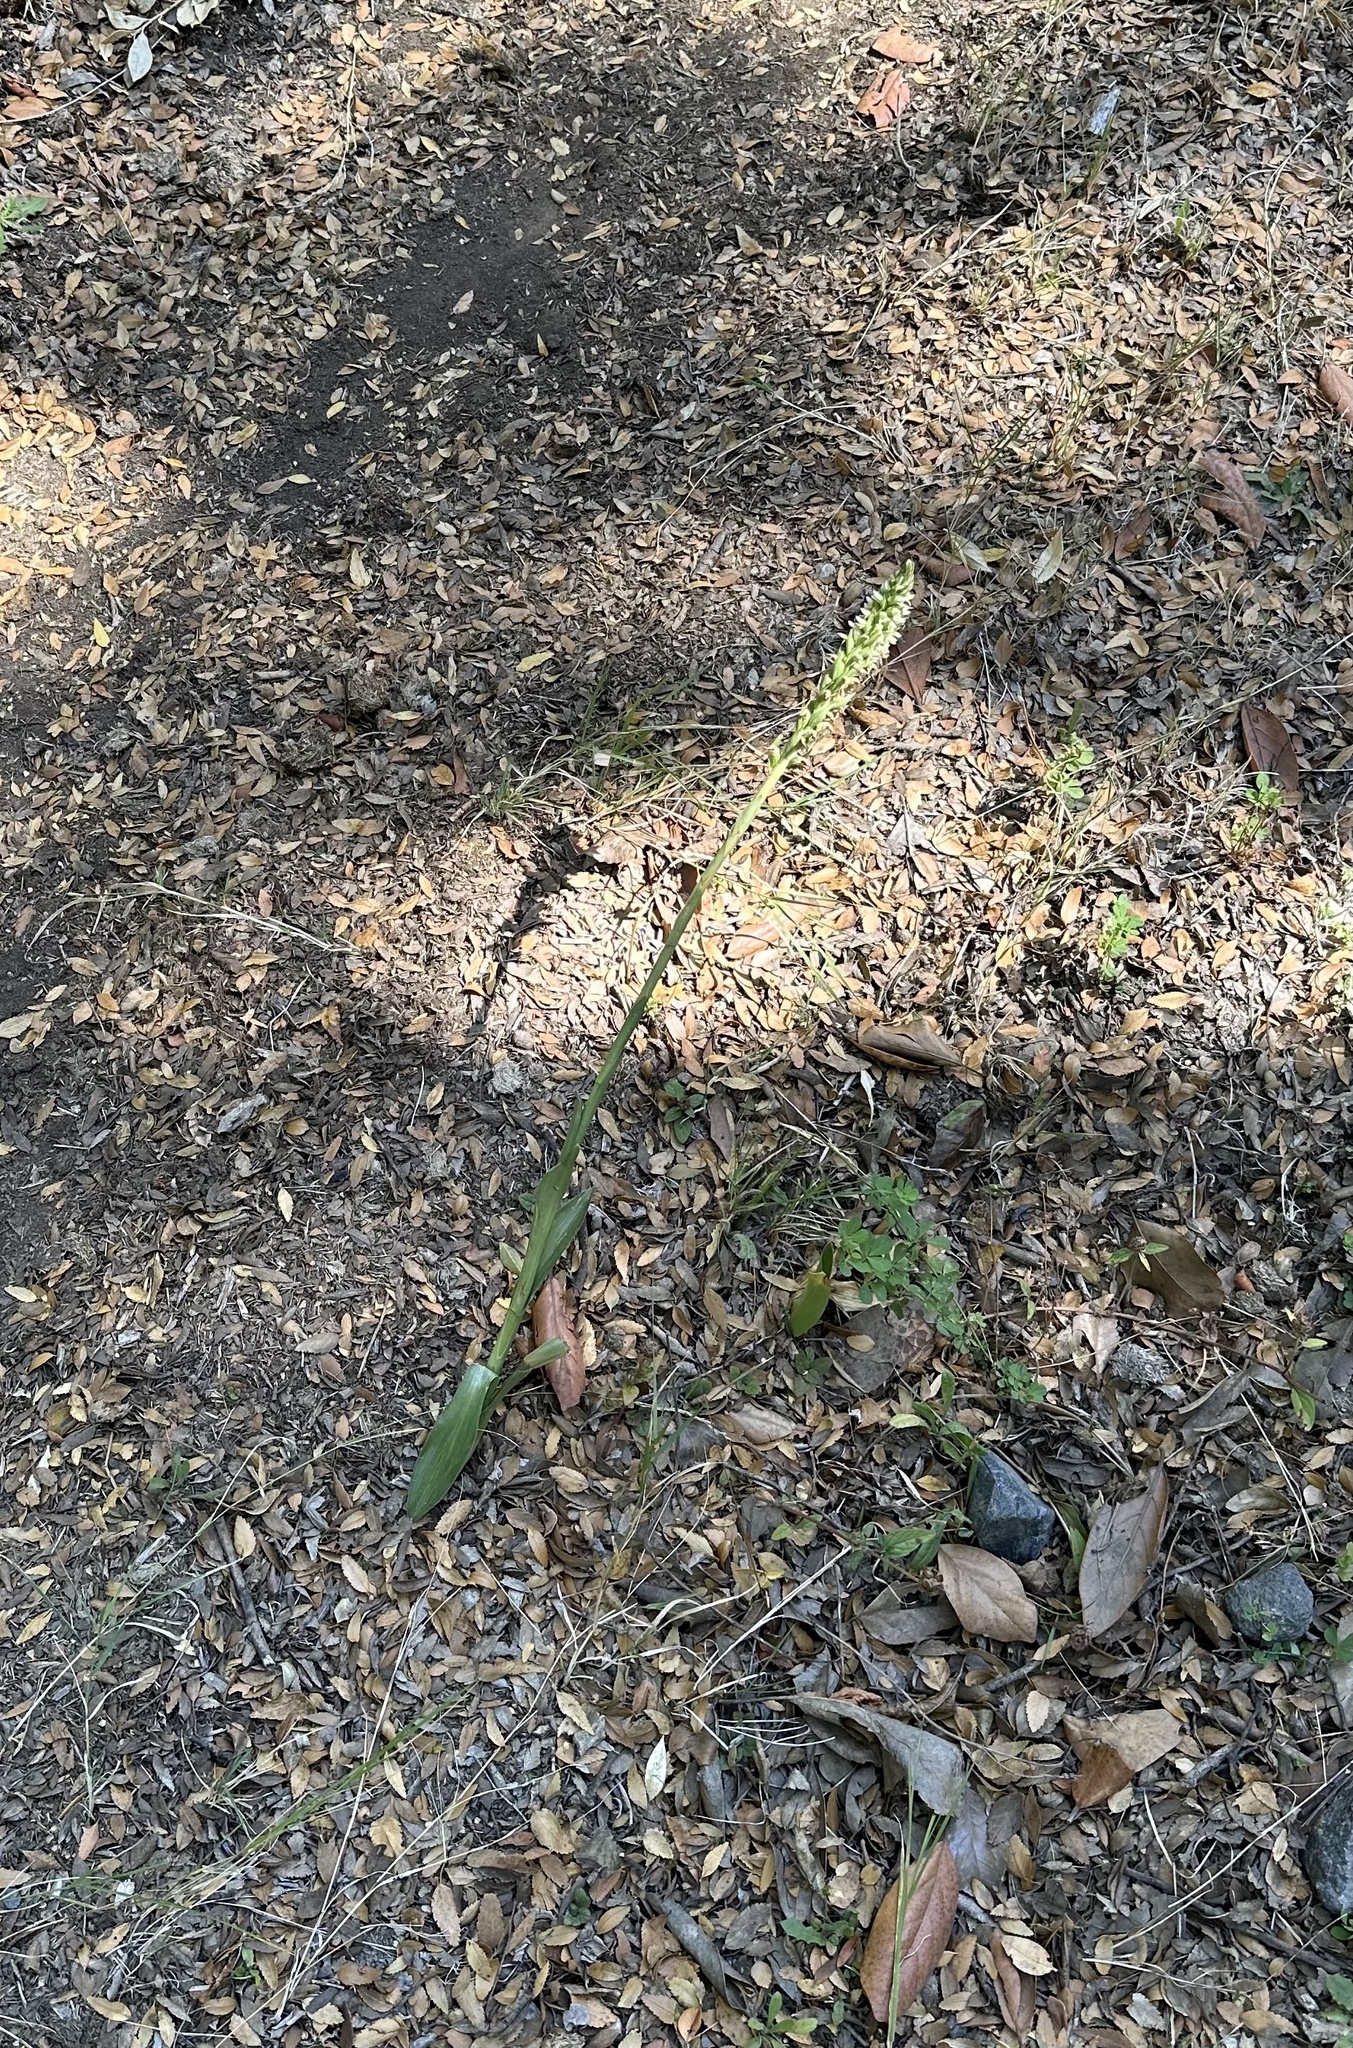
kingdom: Plantae
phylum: Tracheophyta
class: Liliopsida
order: Asparagales
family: Orchidaceae
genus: Brachystele
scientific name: Brachystele unilateralis
